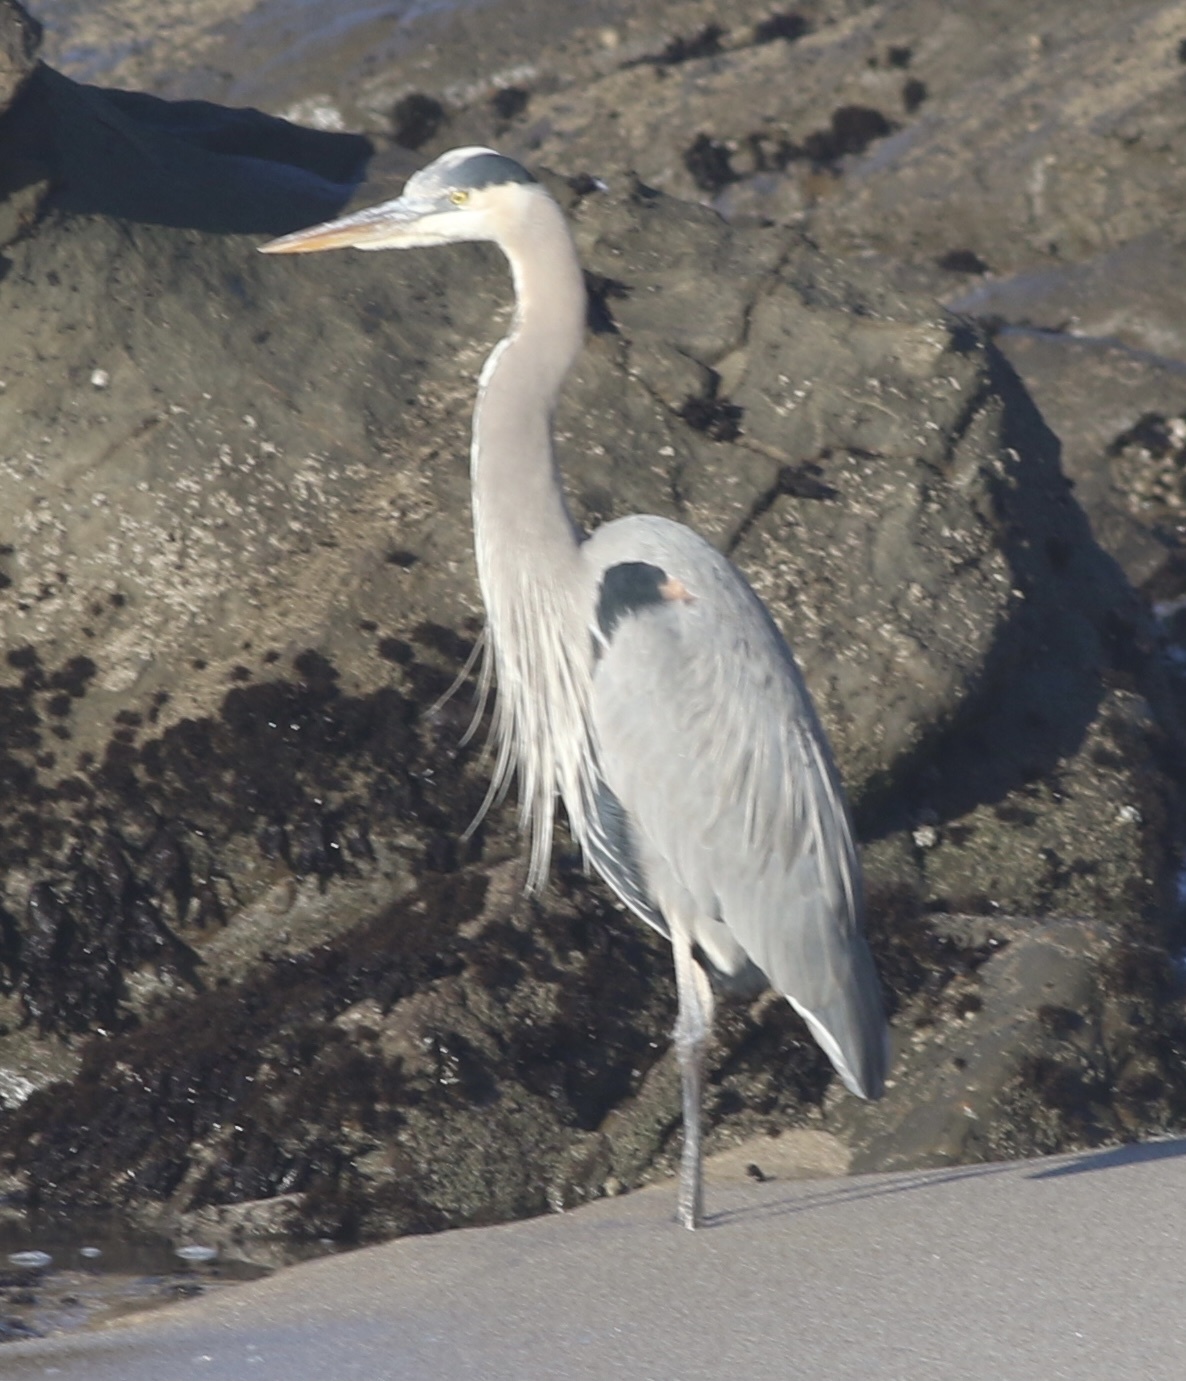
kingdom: Animalia
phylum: Chordata
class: Aves
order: Pelecaniformes
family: Ardeidae
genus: Ardea
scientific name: Ardea herodias
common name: Great blue heron
